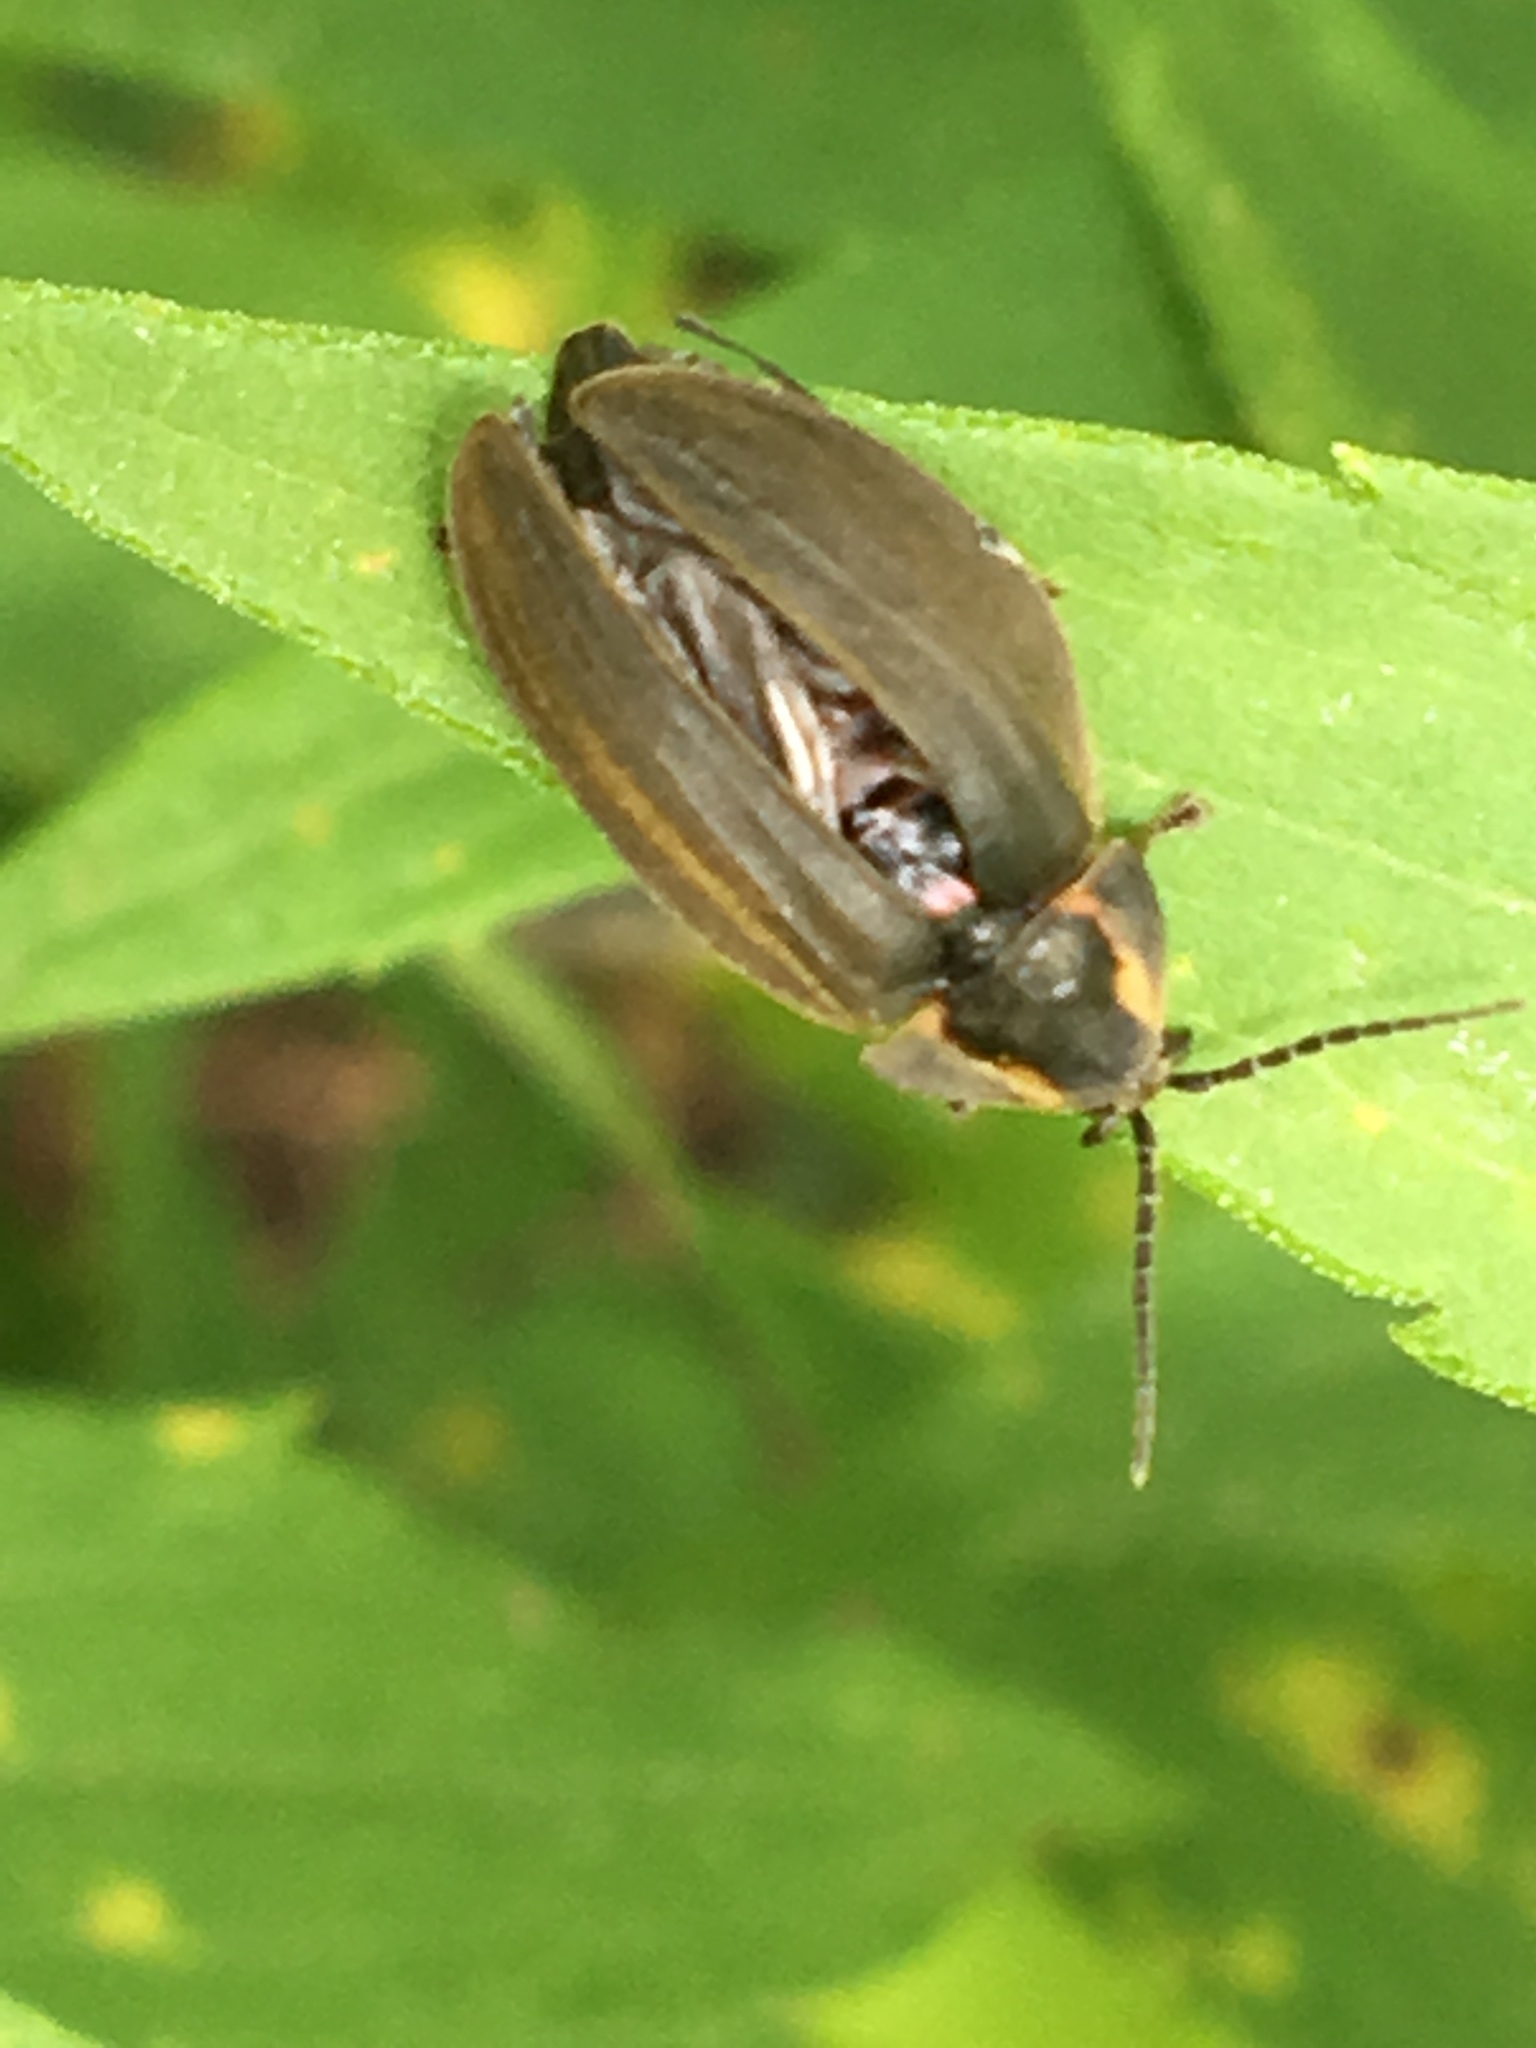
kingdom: Animalia
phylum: Arthropoda
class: Insecta
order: Coleoptera
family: Lampyridae
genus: Photinus
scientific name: Photinus corrusca
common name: Winter firefly
